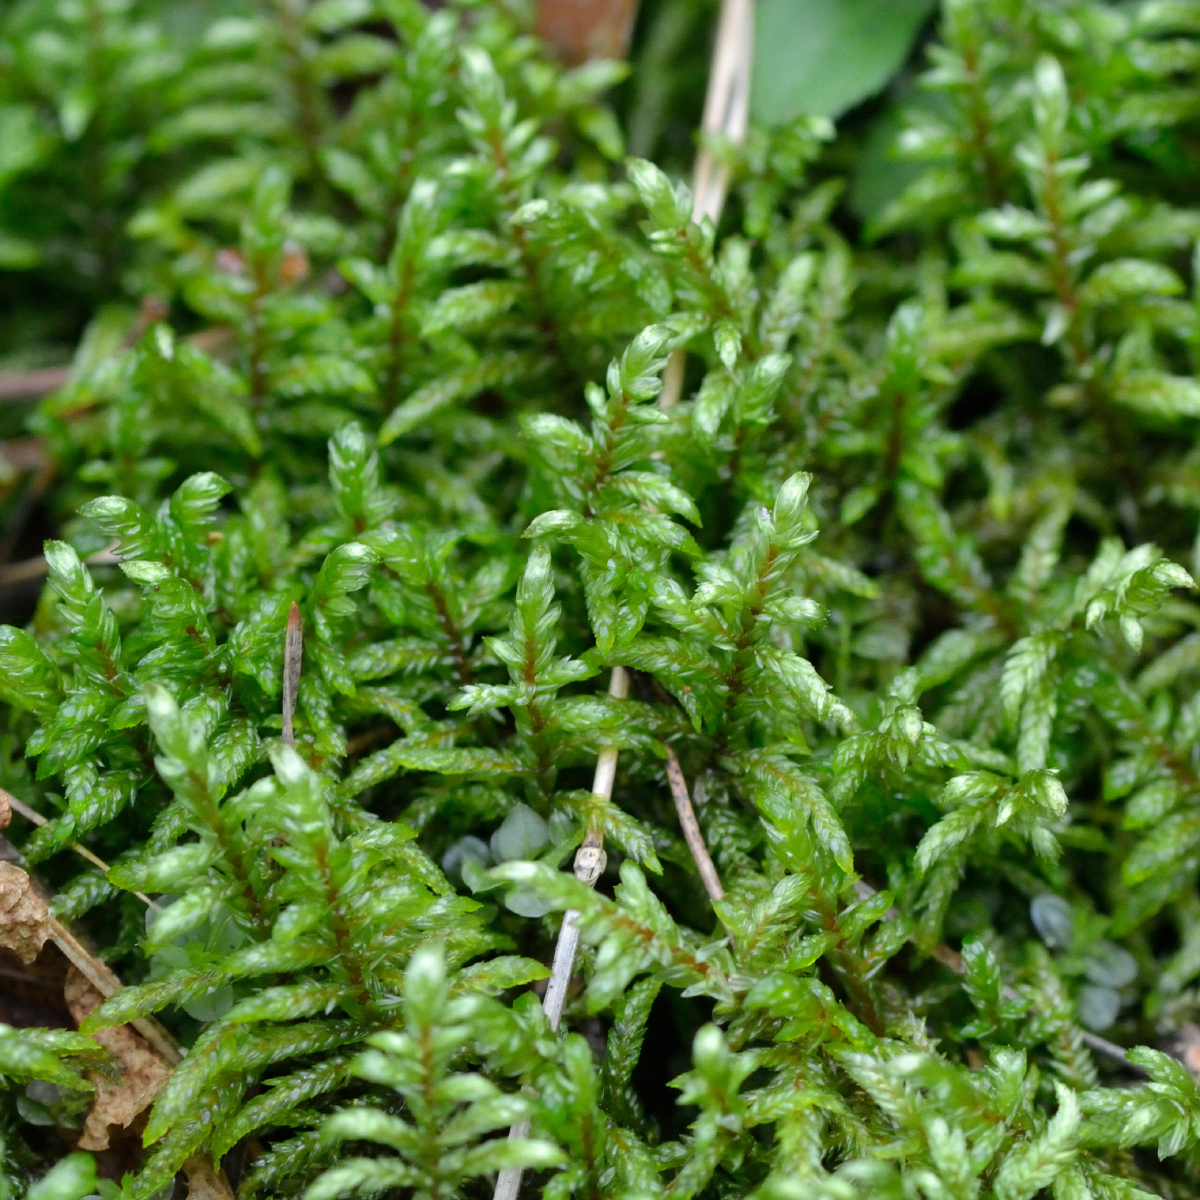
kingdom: Plantae
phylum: Bryophyta
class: Bryopsida
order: Hypnales
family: Hylocomiaceae
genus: Pleurozium
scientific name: Pleurozium schreberi
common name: Red-stemmed feather moss
